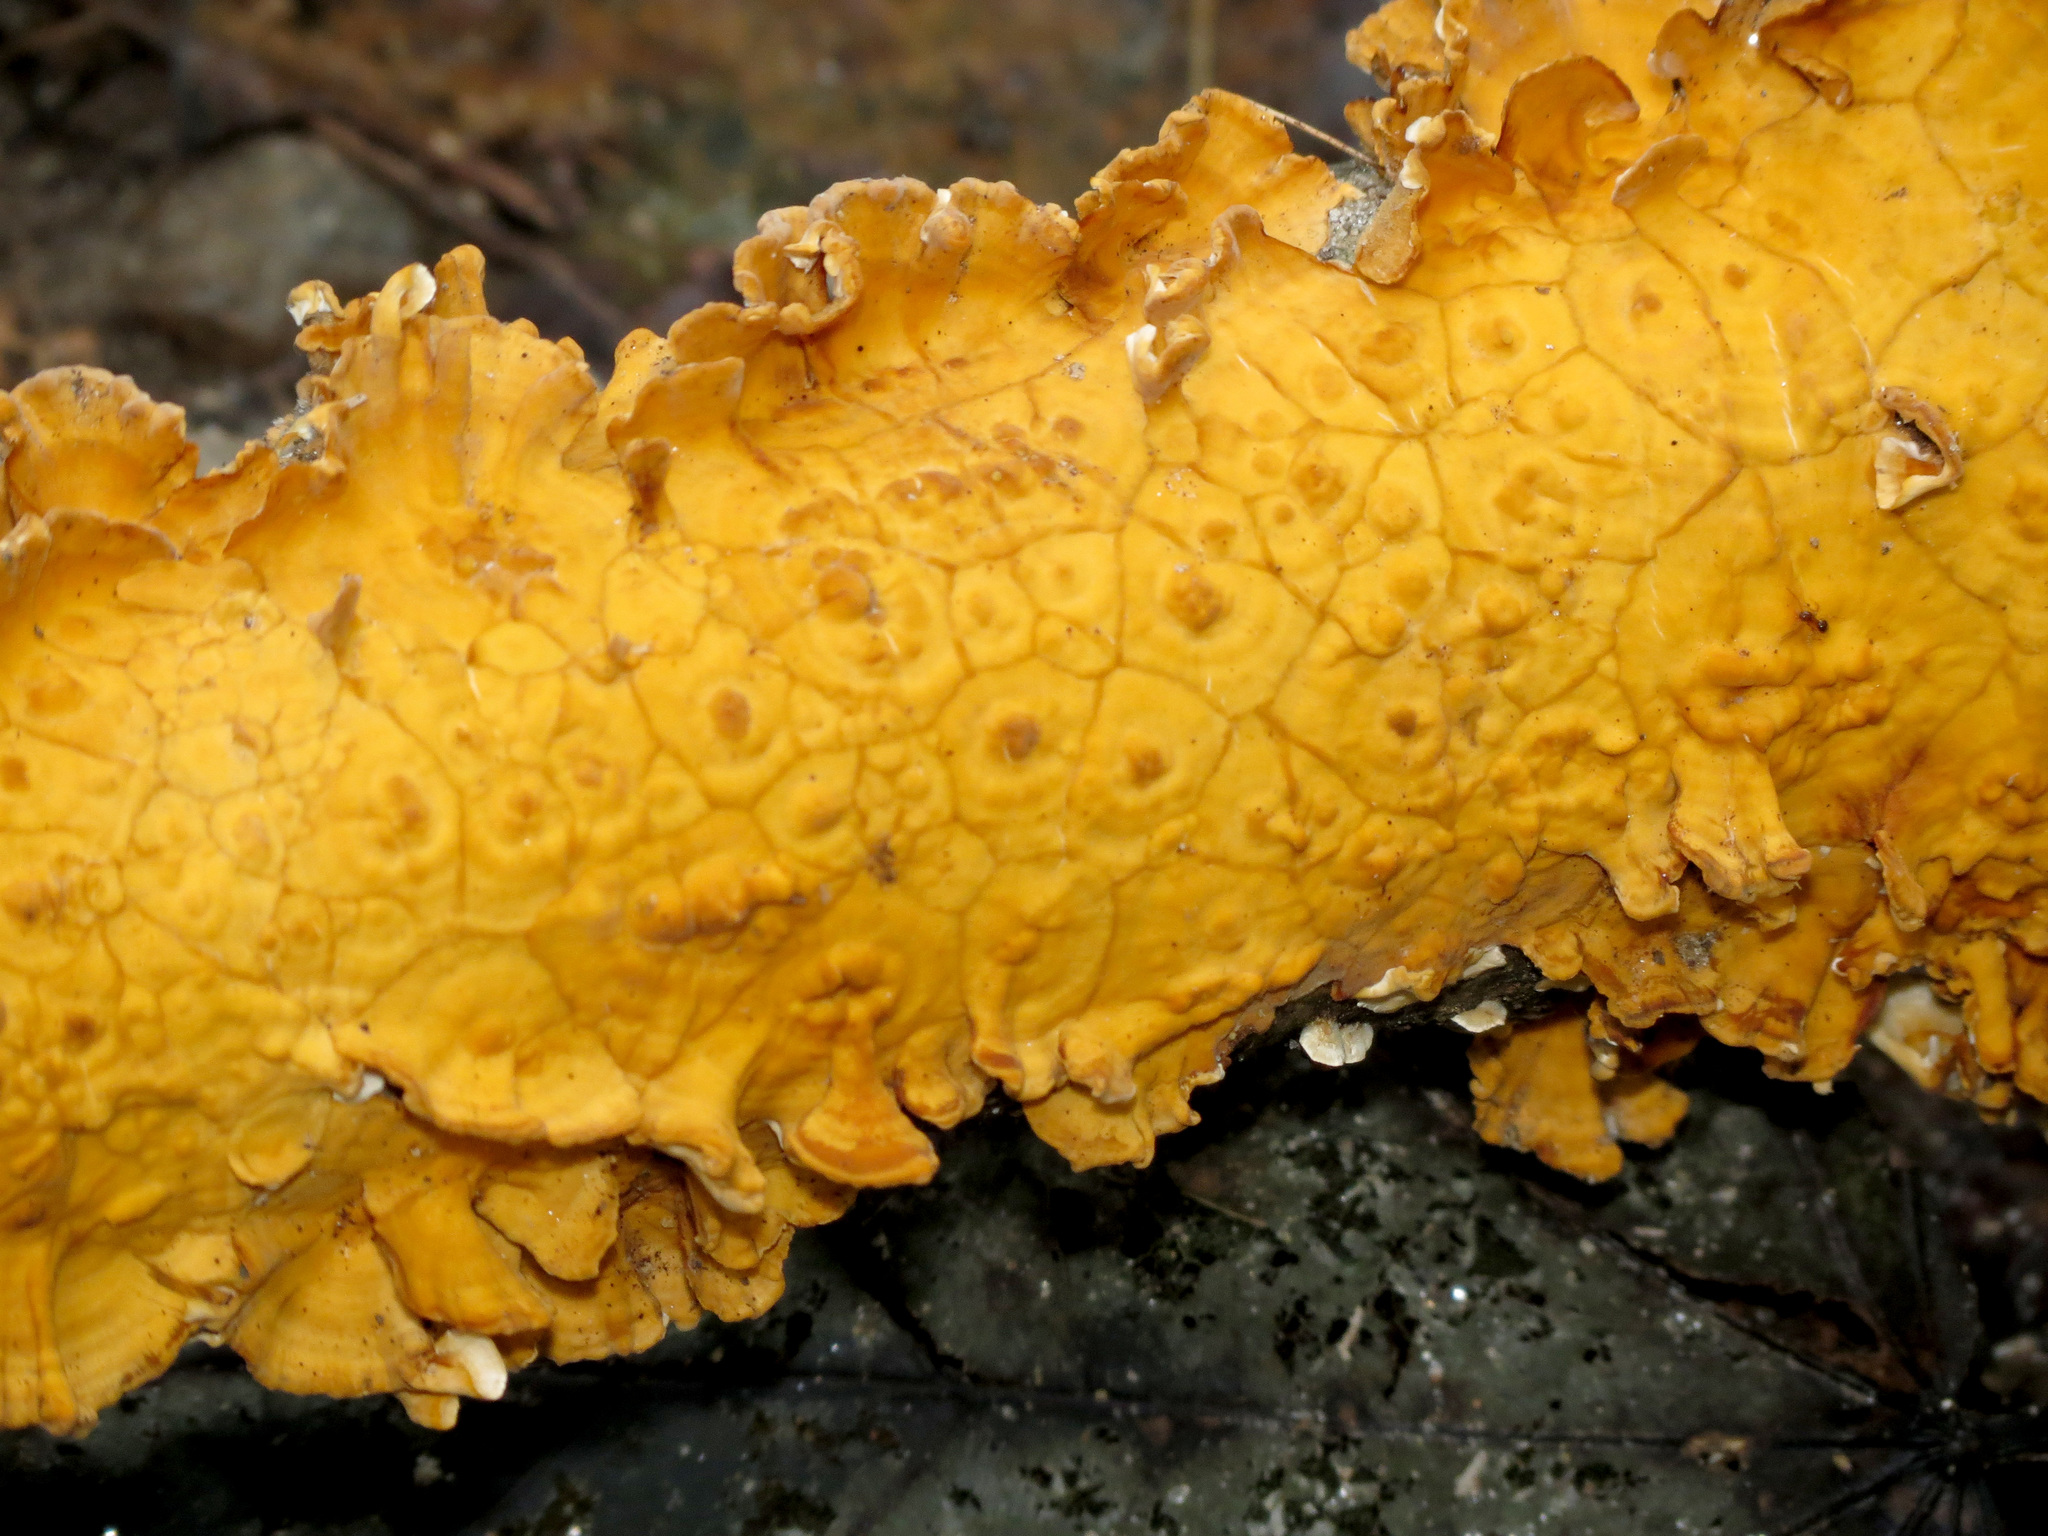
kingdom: Fungi
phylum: Basidiomycota
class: Agaricomycetes
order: Russulales
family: Stereaceae
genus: Stereum
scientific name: Stereum complicatum
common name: Crowded parchment
